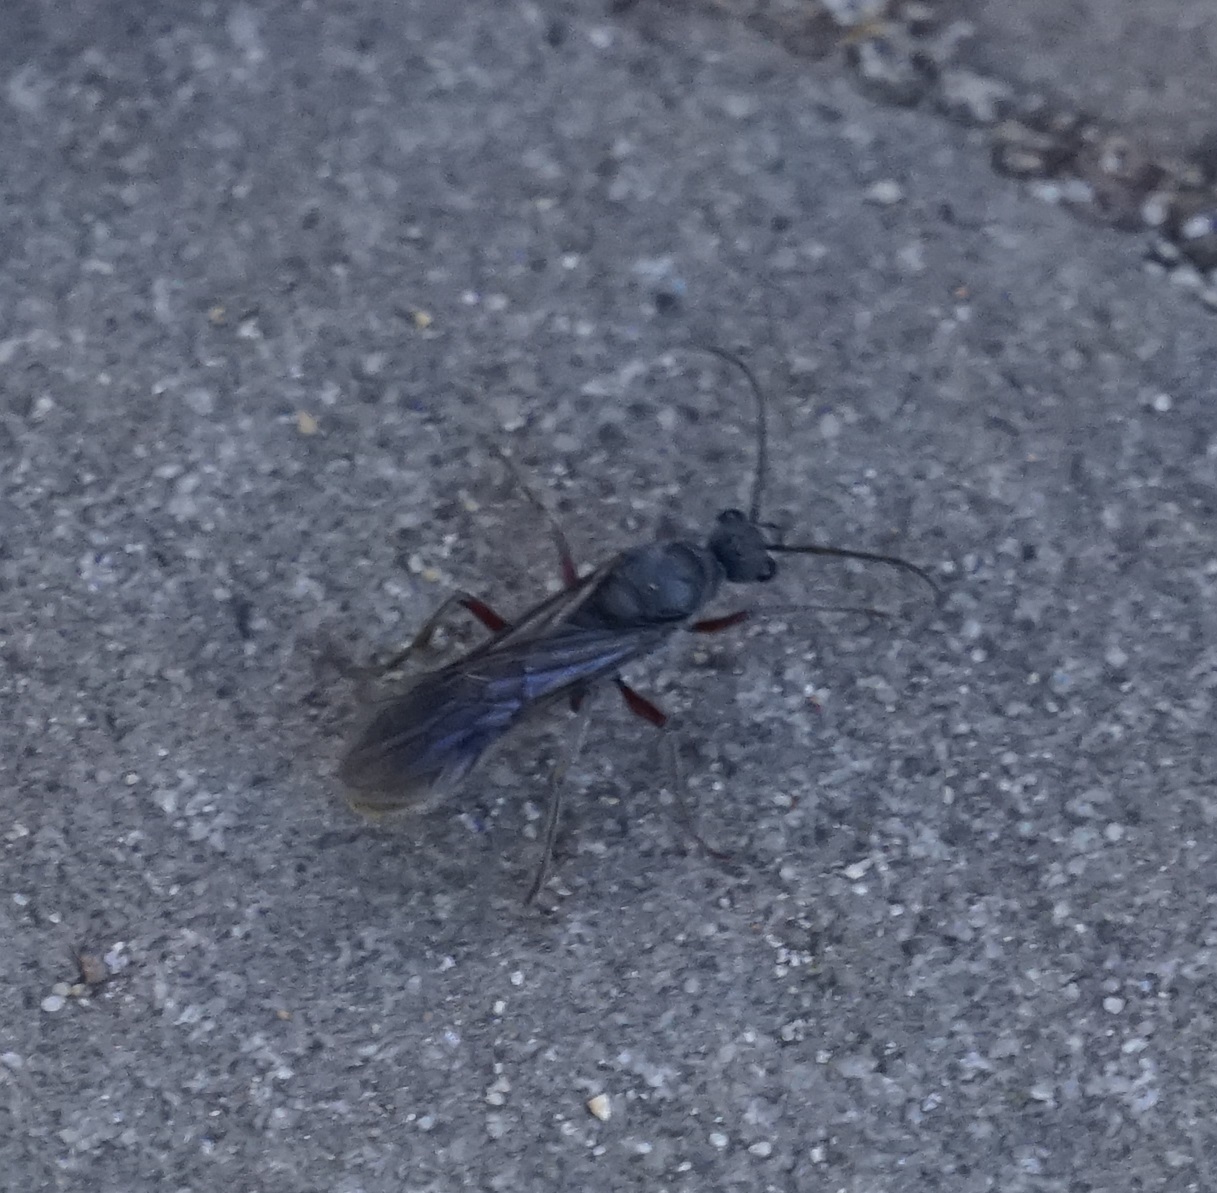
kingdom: Animalia
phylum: Arthropoda
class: Insecta
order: Hymenoptera
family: Formicidae
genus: Myrmecia
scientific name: Myrmecia fulvipes
